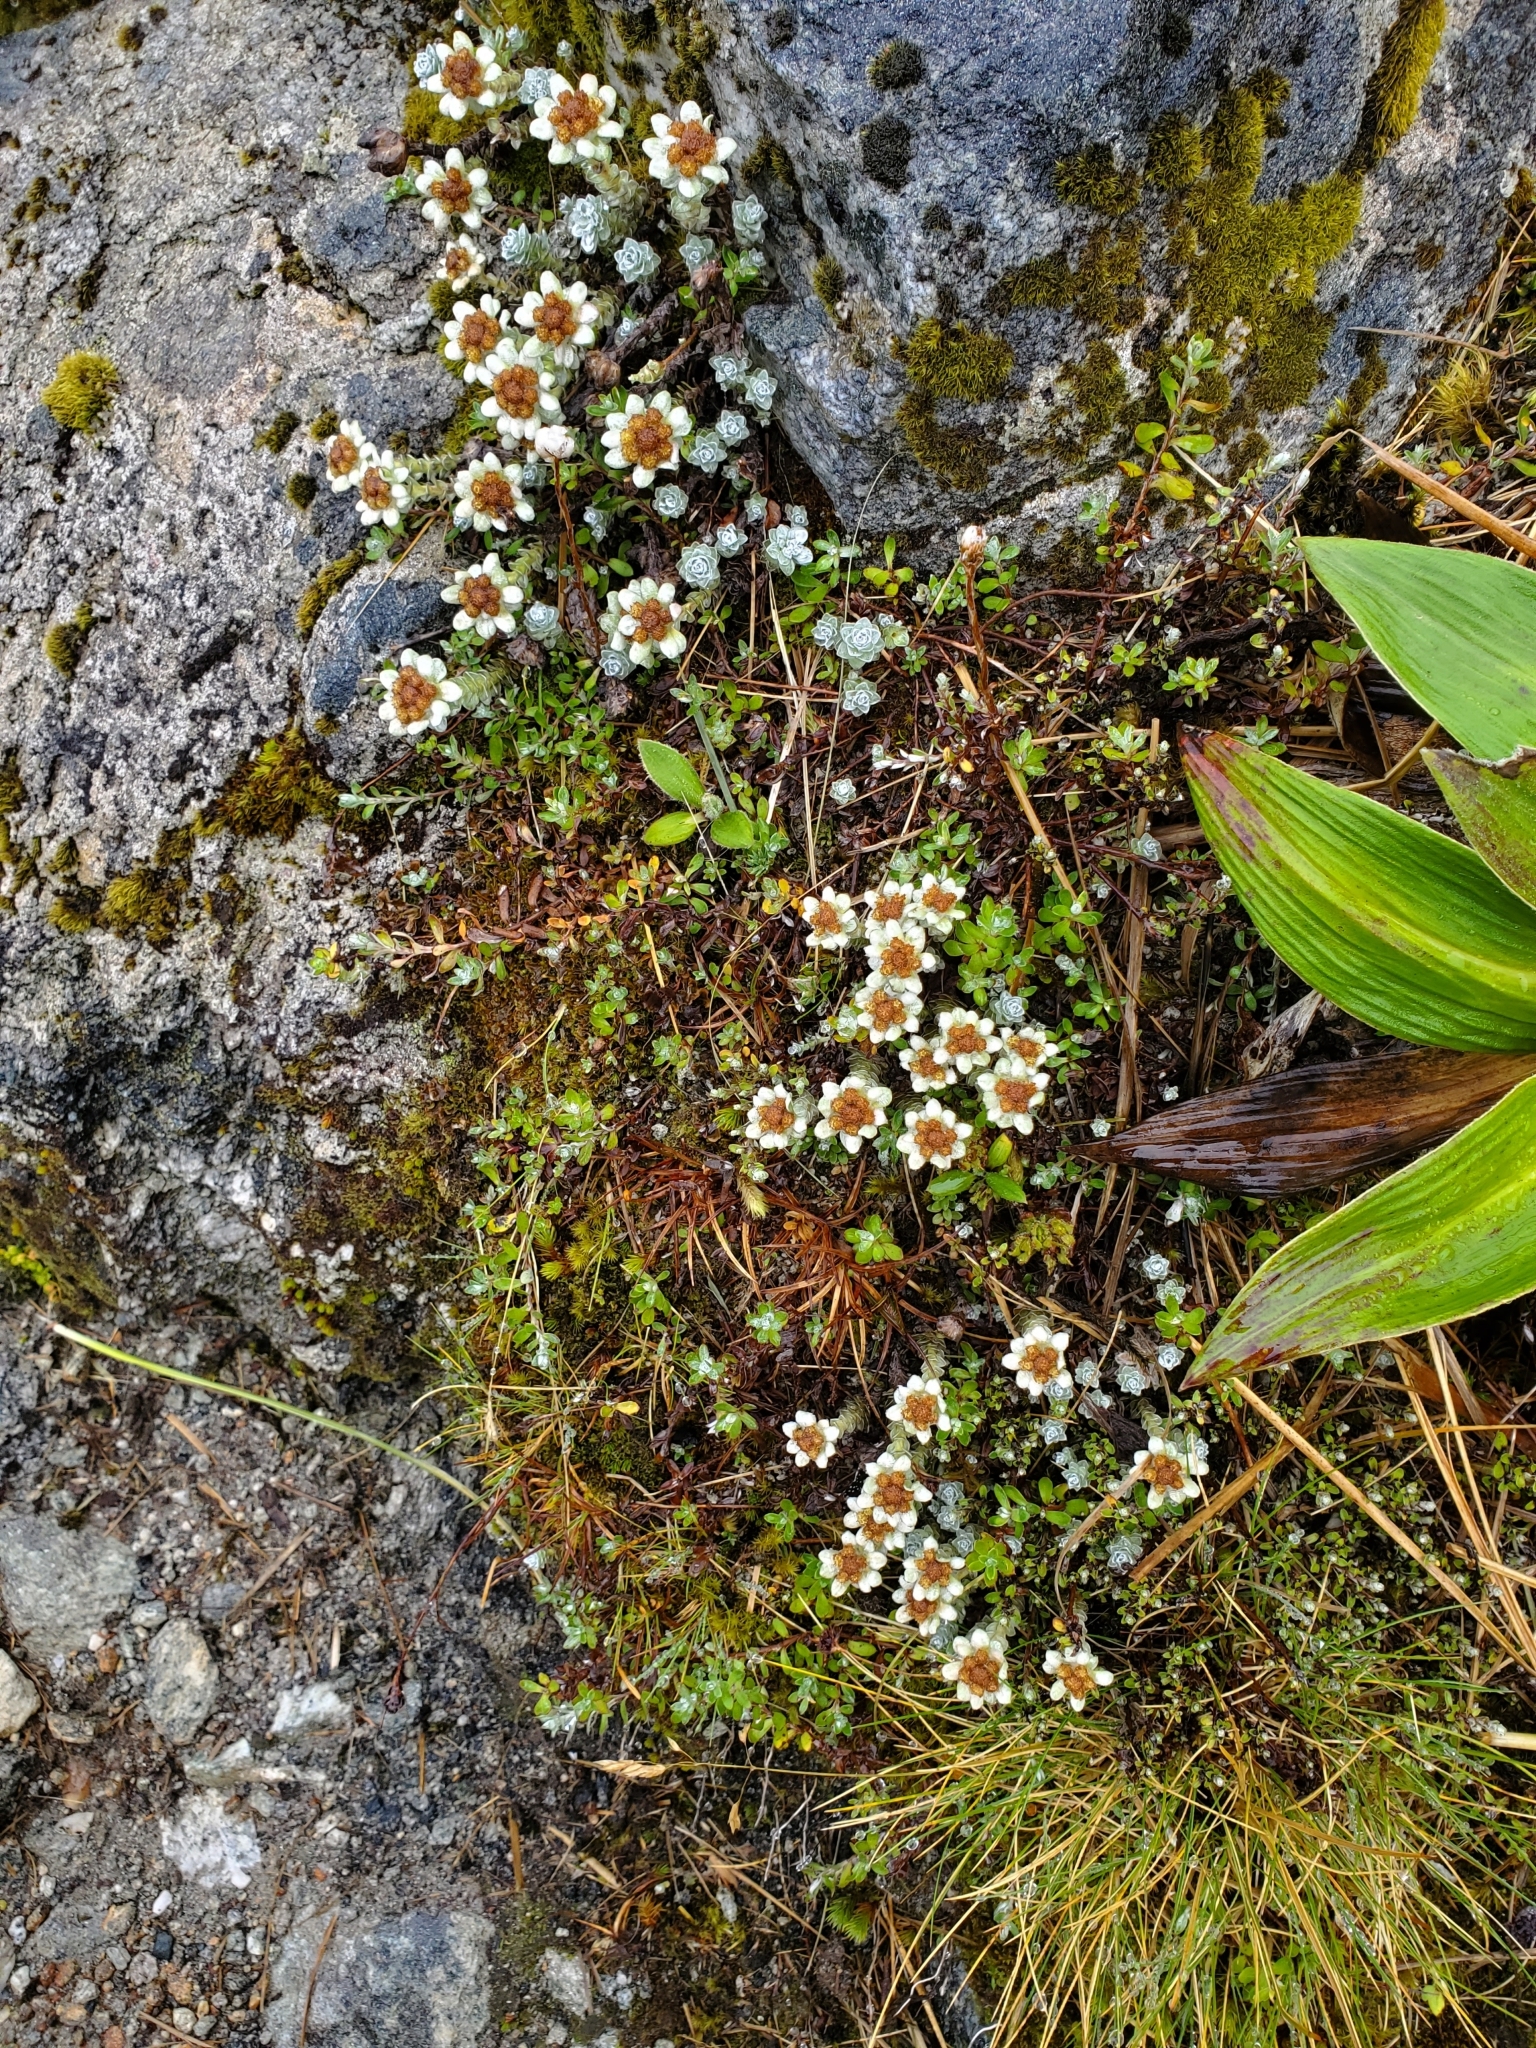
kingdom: Plantae
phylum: Tracheophyta
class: Magnoliopsida
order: Asterales
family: Asteraceae
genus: Leucogenes
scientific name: Leucogenes grandiceps
